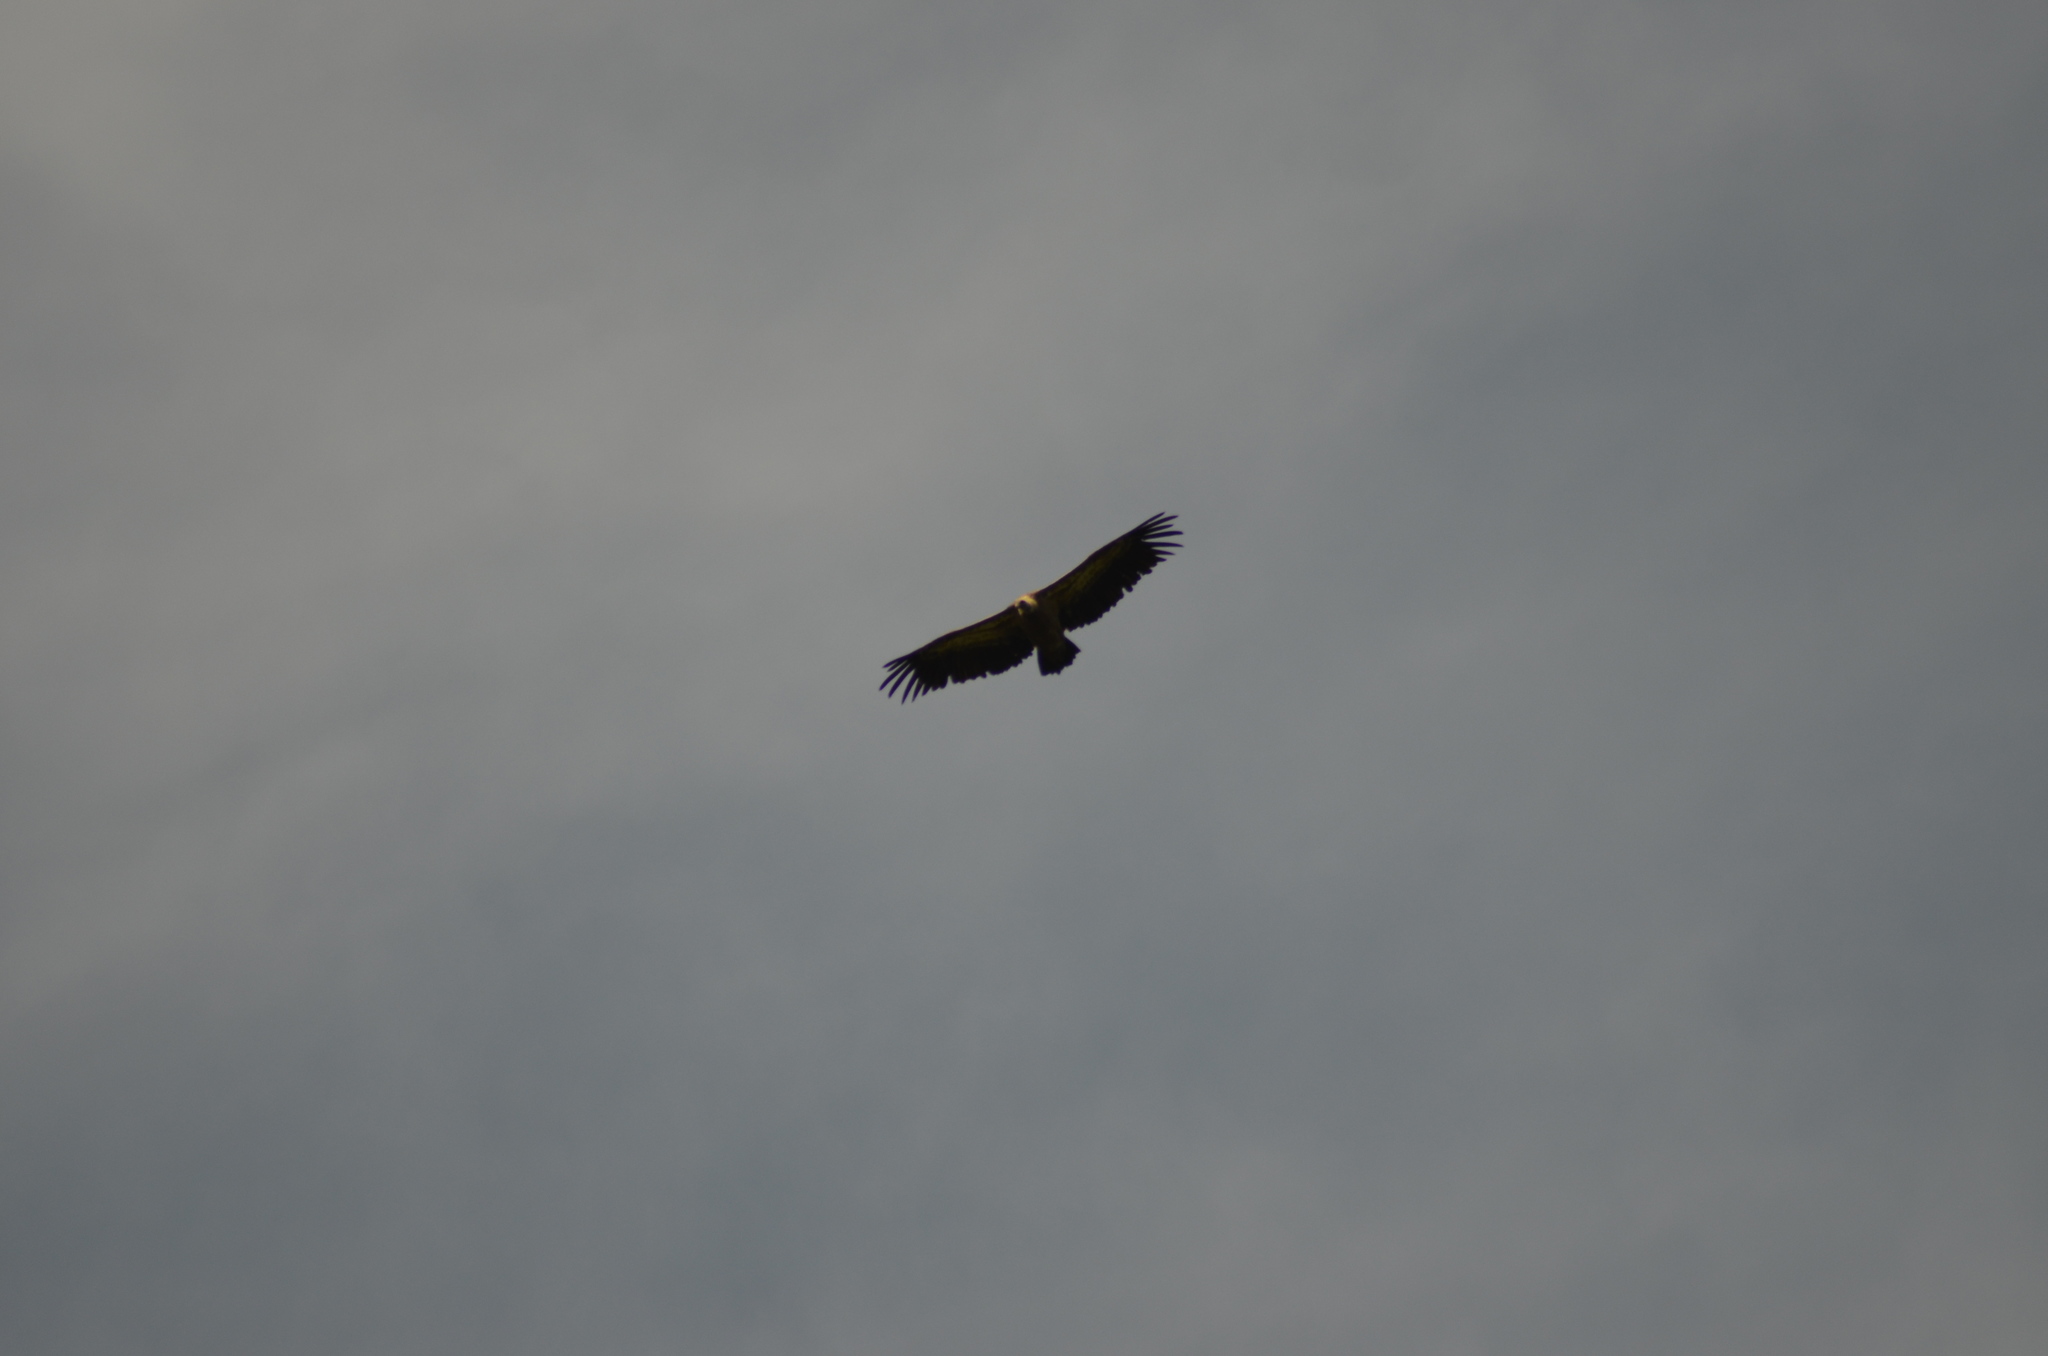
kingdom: Animalia
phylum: Chordata
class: Aves
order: Accipitriformes
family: Accipitridae
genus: Gyps
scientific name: Gyps fulvus
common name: Griffon vulture
